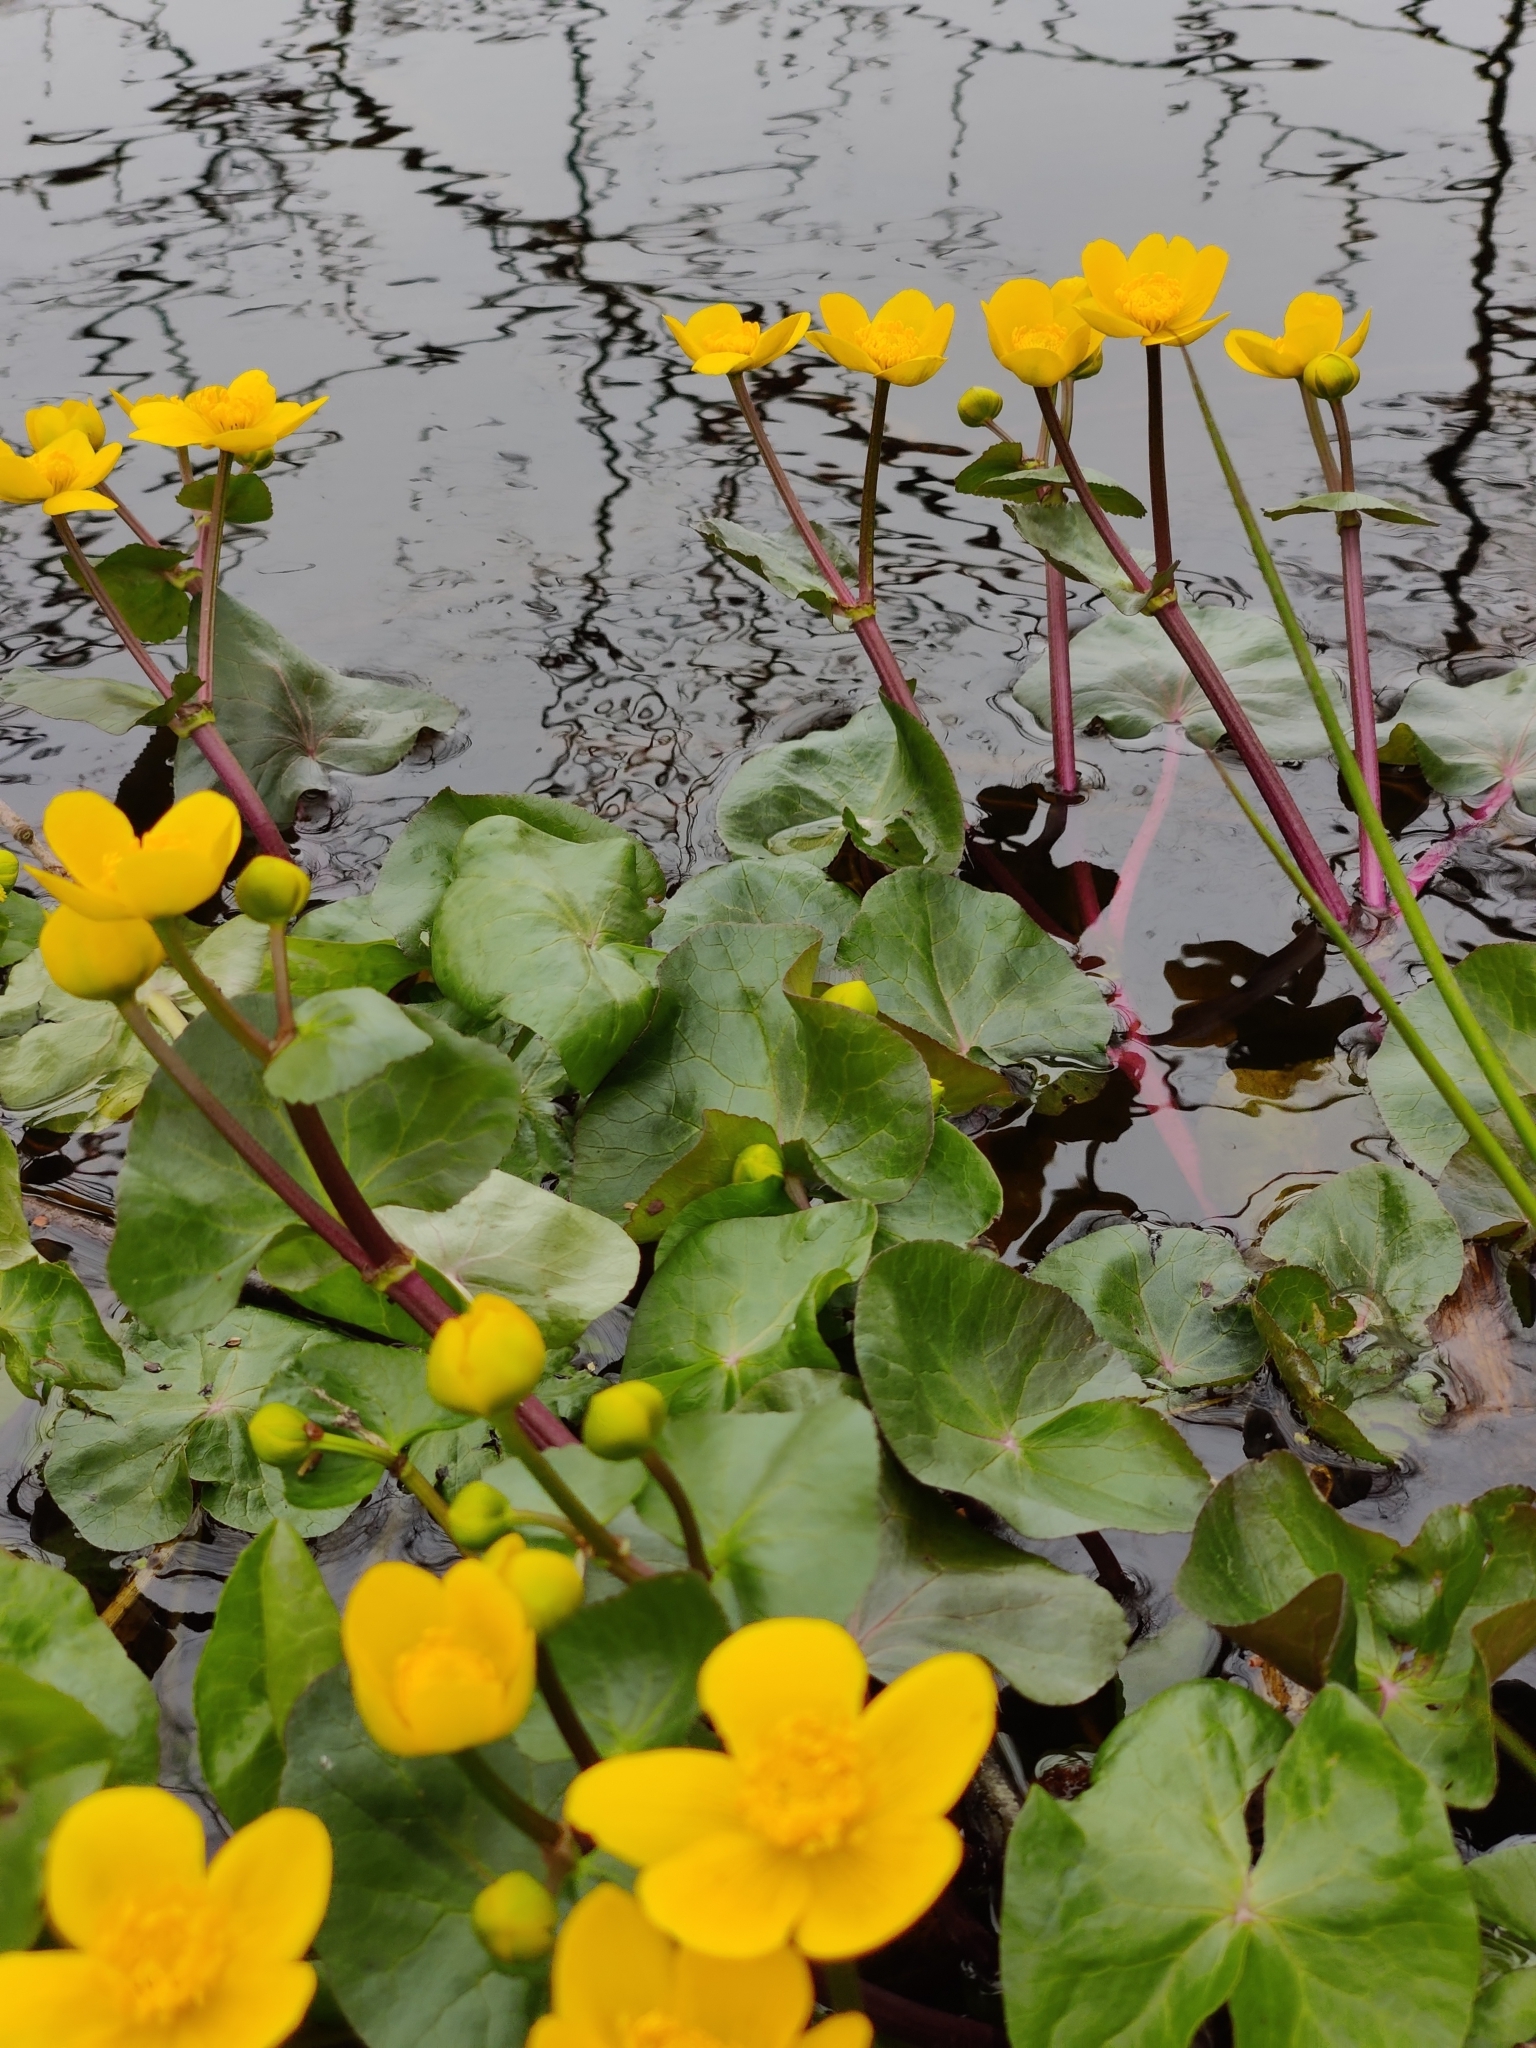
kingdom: Plantae
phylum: Tracheophyta
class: Magnoliopsida
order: Ranunculales
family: Ranunculaceae
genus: Caltha
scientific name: Caltha palustris
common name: Marsh marigold
